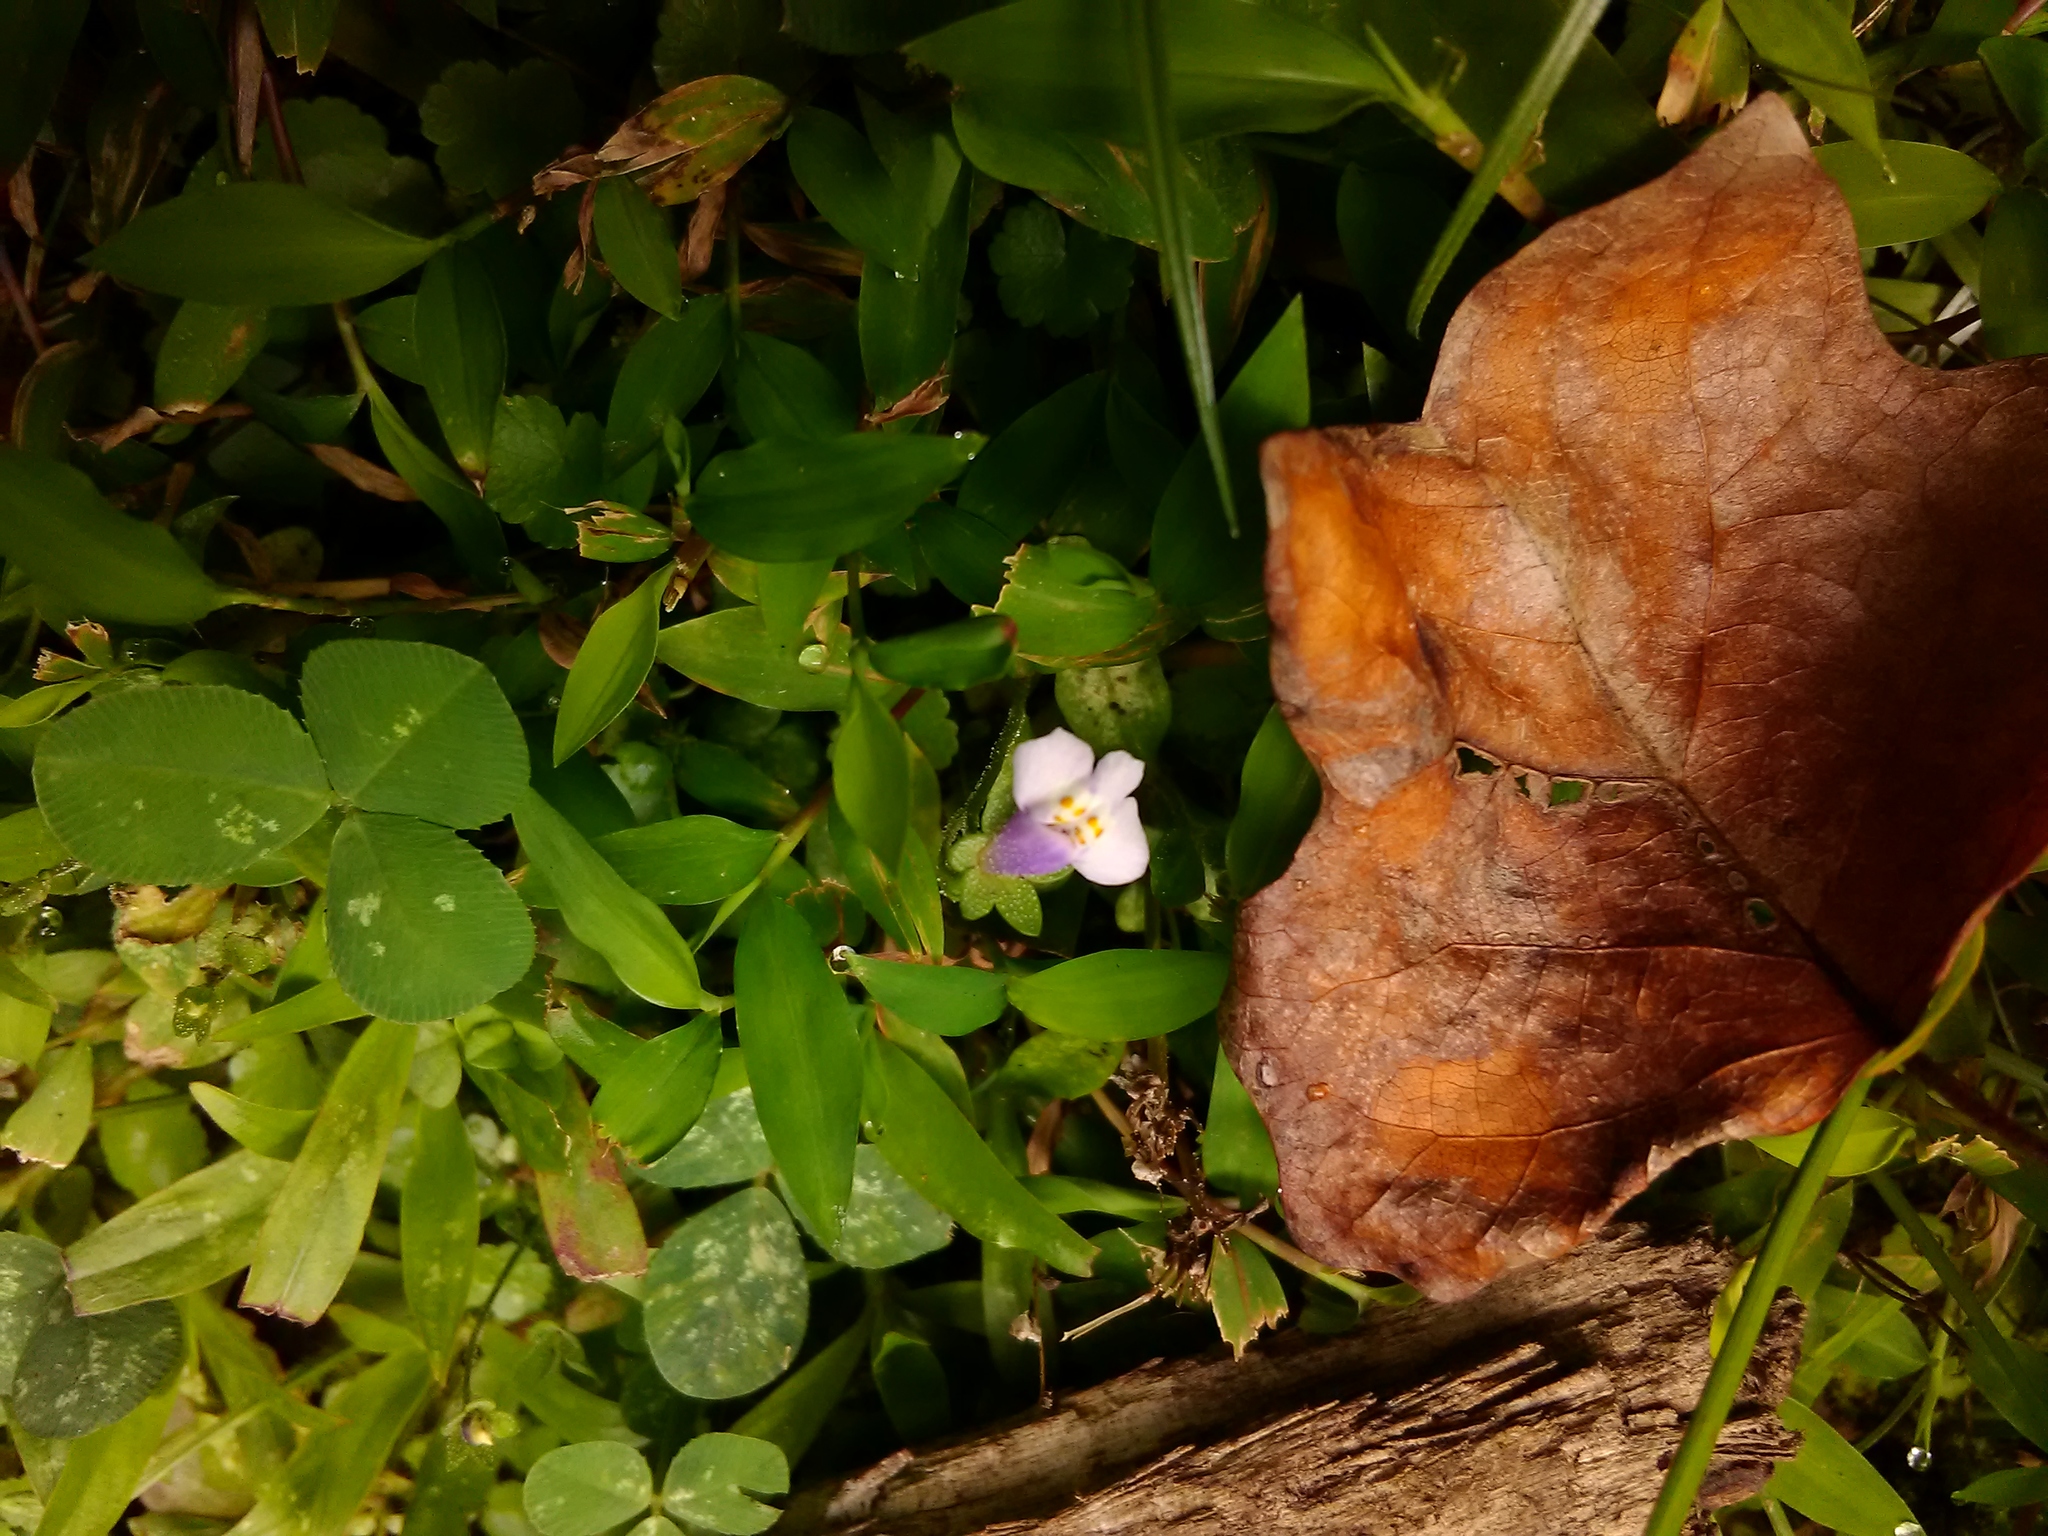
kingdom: Plantae
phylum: Tracheophyta
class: Magnoliopsida
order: Lamiales
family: Mazaceae
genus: Mazus
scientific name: Mazus pumilus
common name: Japanese mazus
